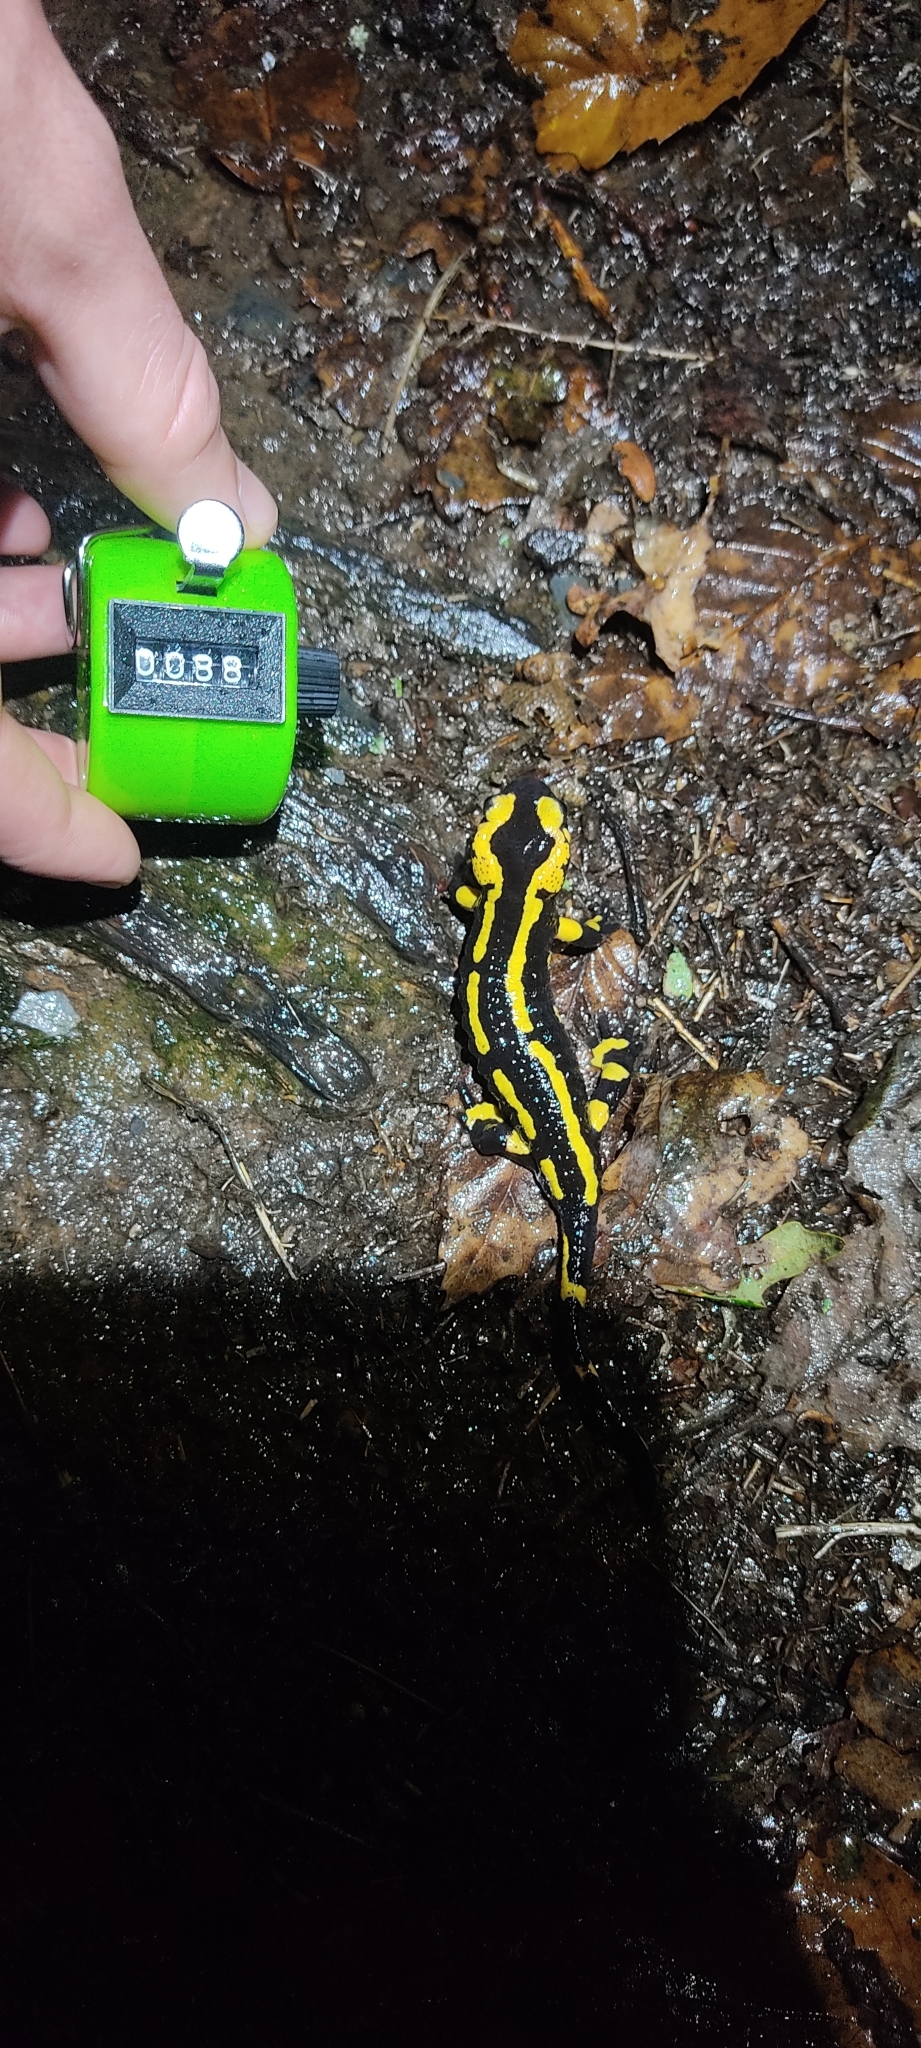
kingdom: Animalia
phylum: Chordata
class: Amphibia
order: Caudata
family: Salamandridae
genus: Salamandra
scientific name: Salamandra salamandra
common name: Fire salamander
